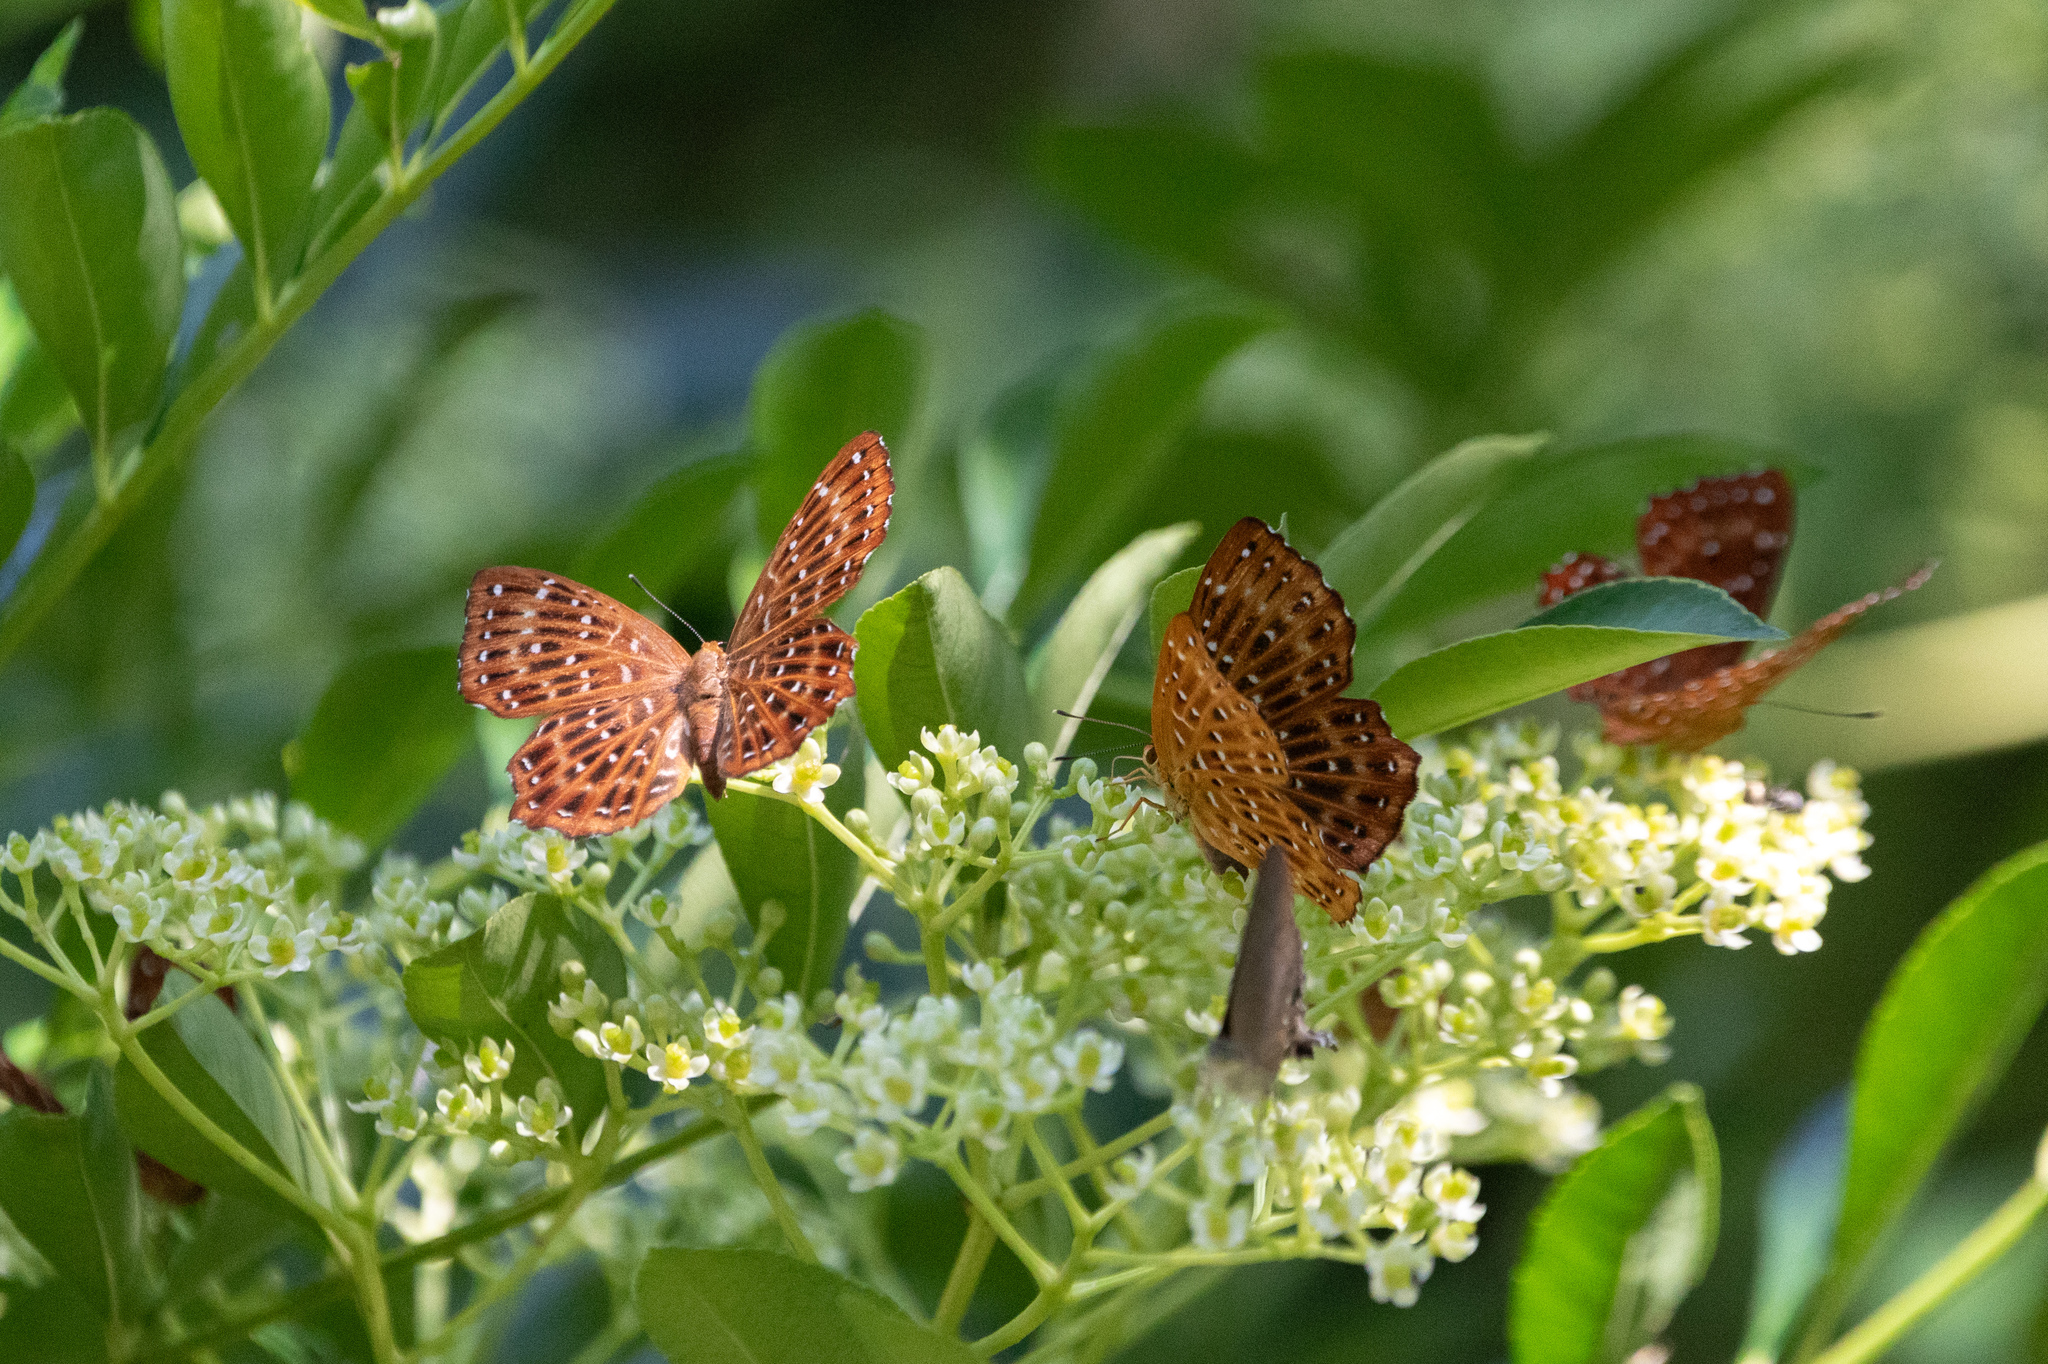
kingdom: Animalia
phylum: Arthropoda
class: Insecta
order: Lepidoptera
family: Riodinidae
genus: Zemeros
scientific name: Zemeros flegyas
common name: Punchinello
